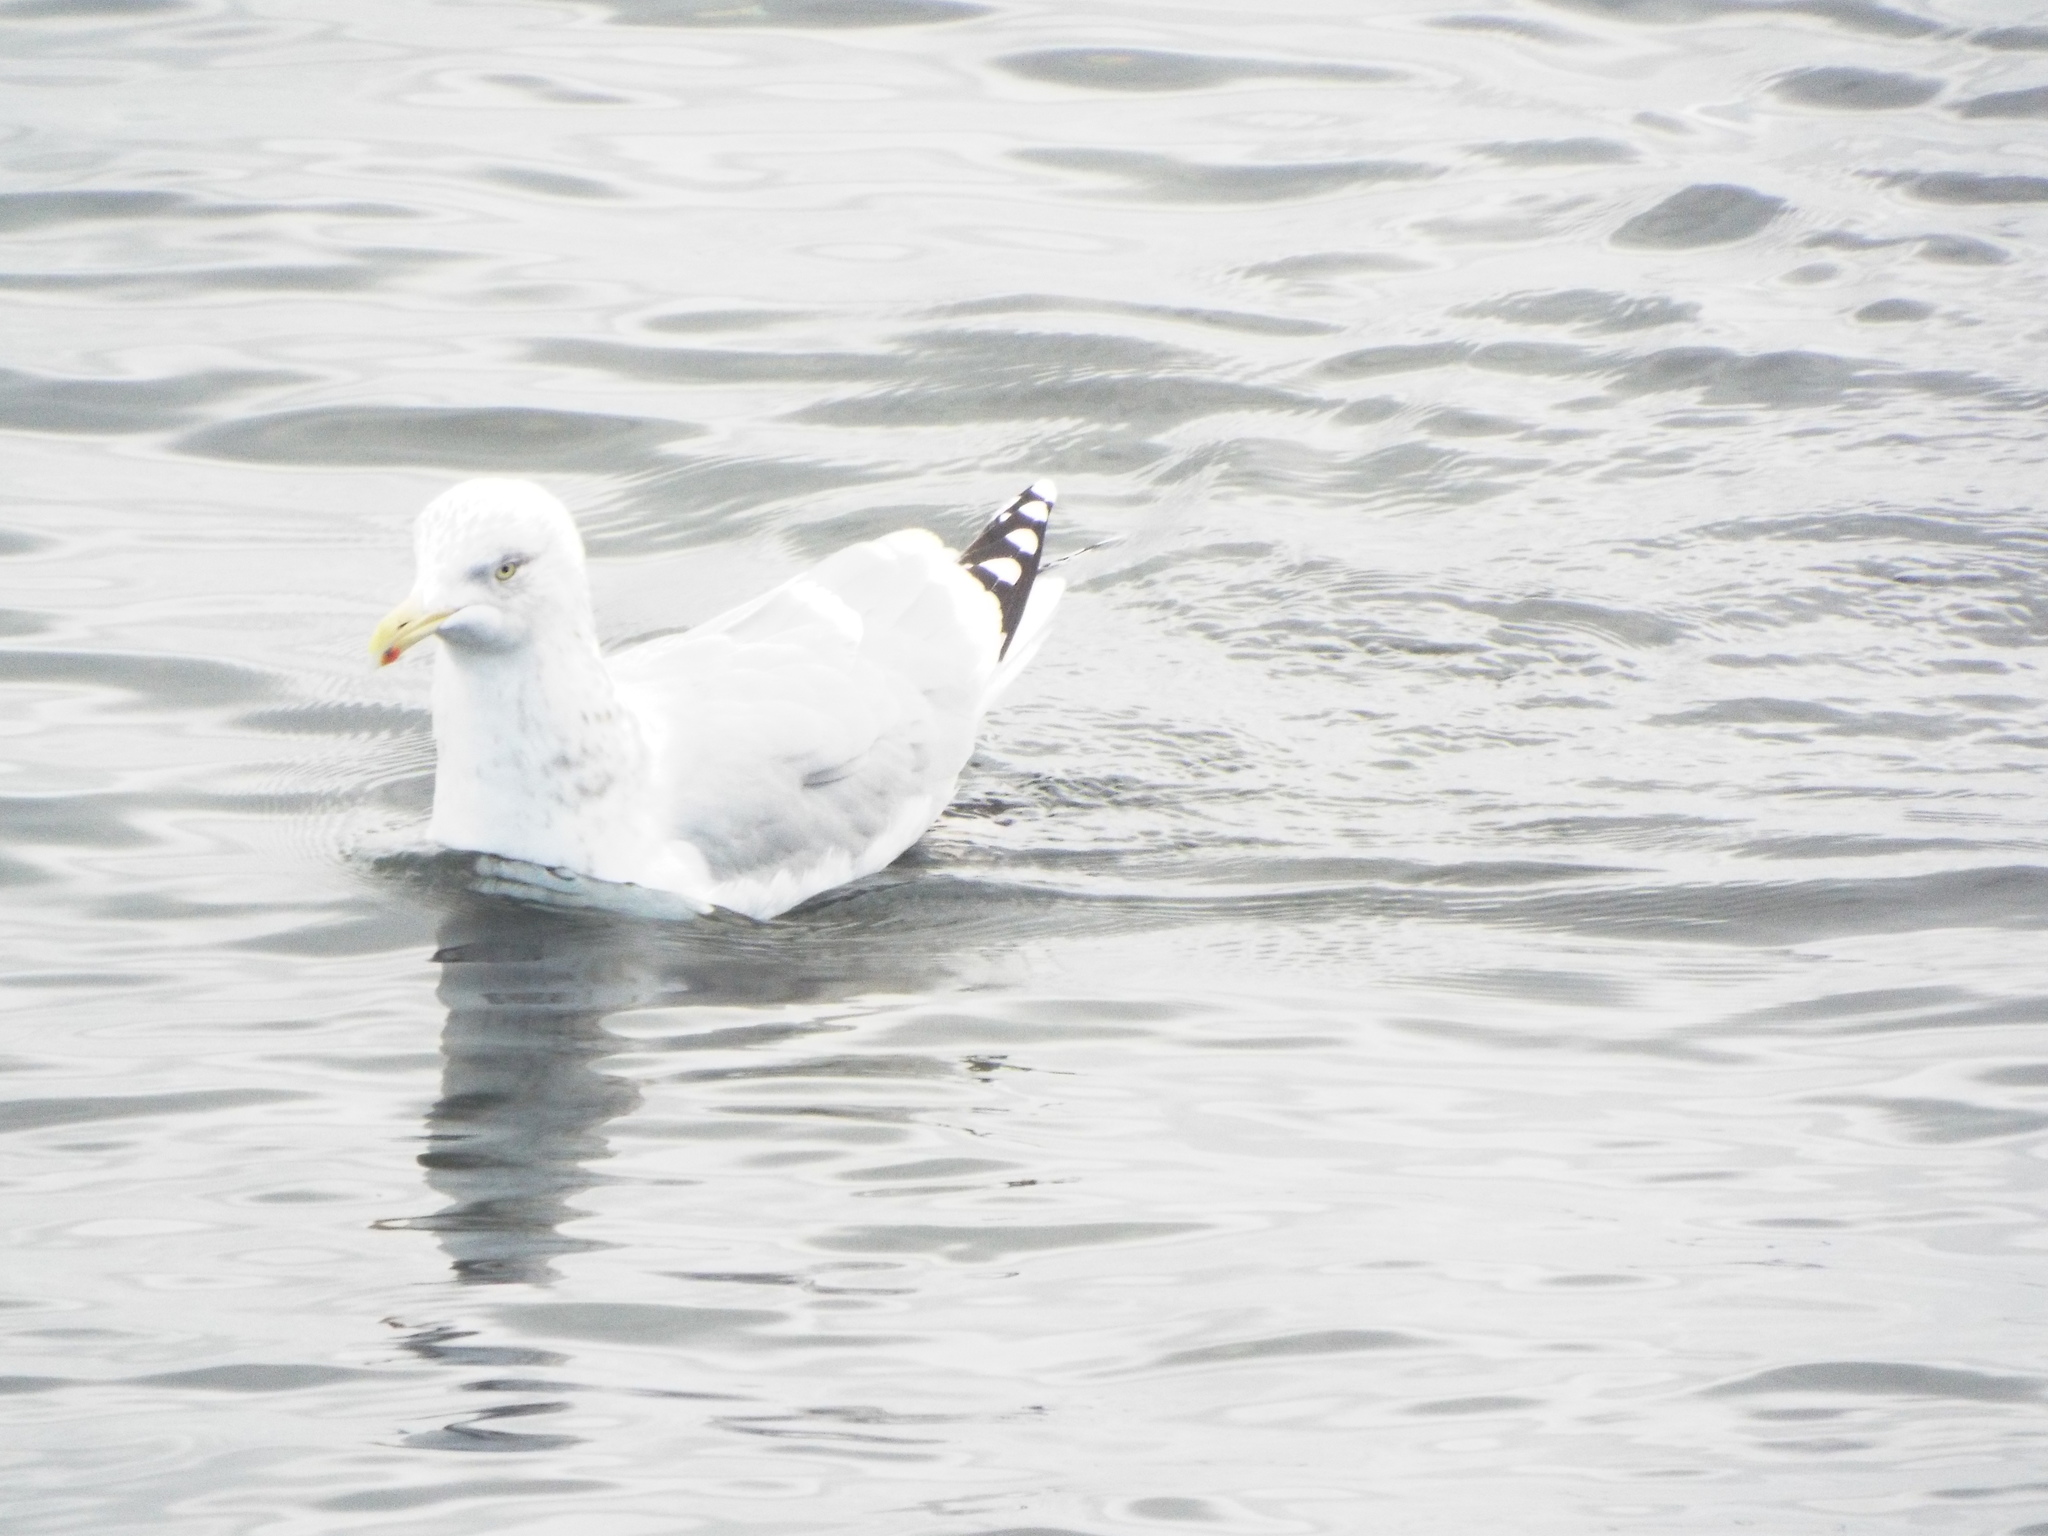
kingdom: Animalia
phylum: Chordata
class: Aves
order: Charadriiformes
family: Laridae
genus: Larus
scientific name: Larus argentatus
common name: Herring gull
